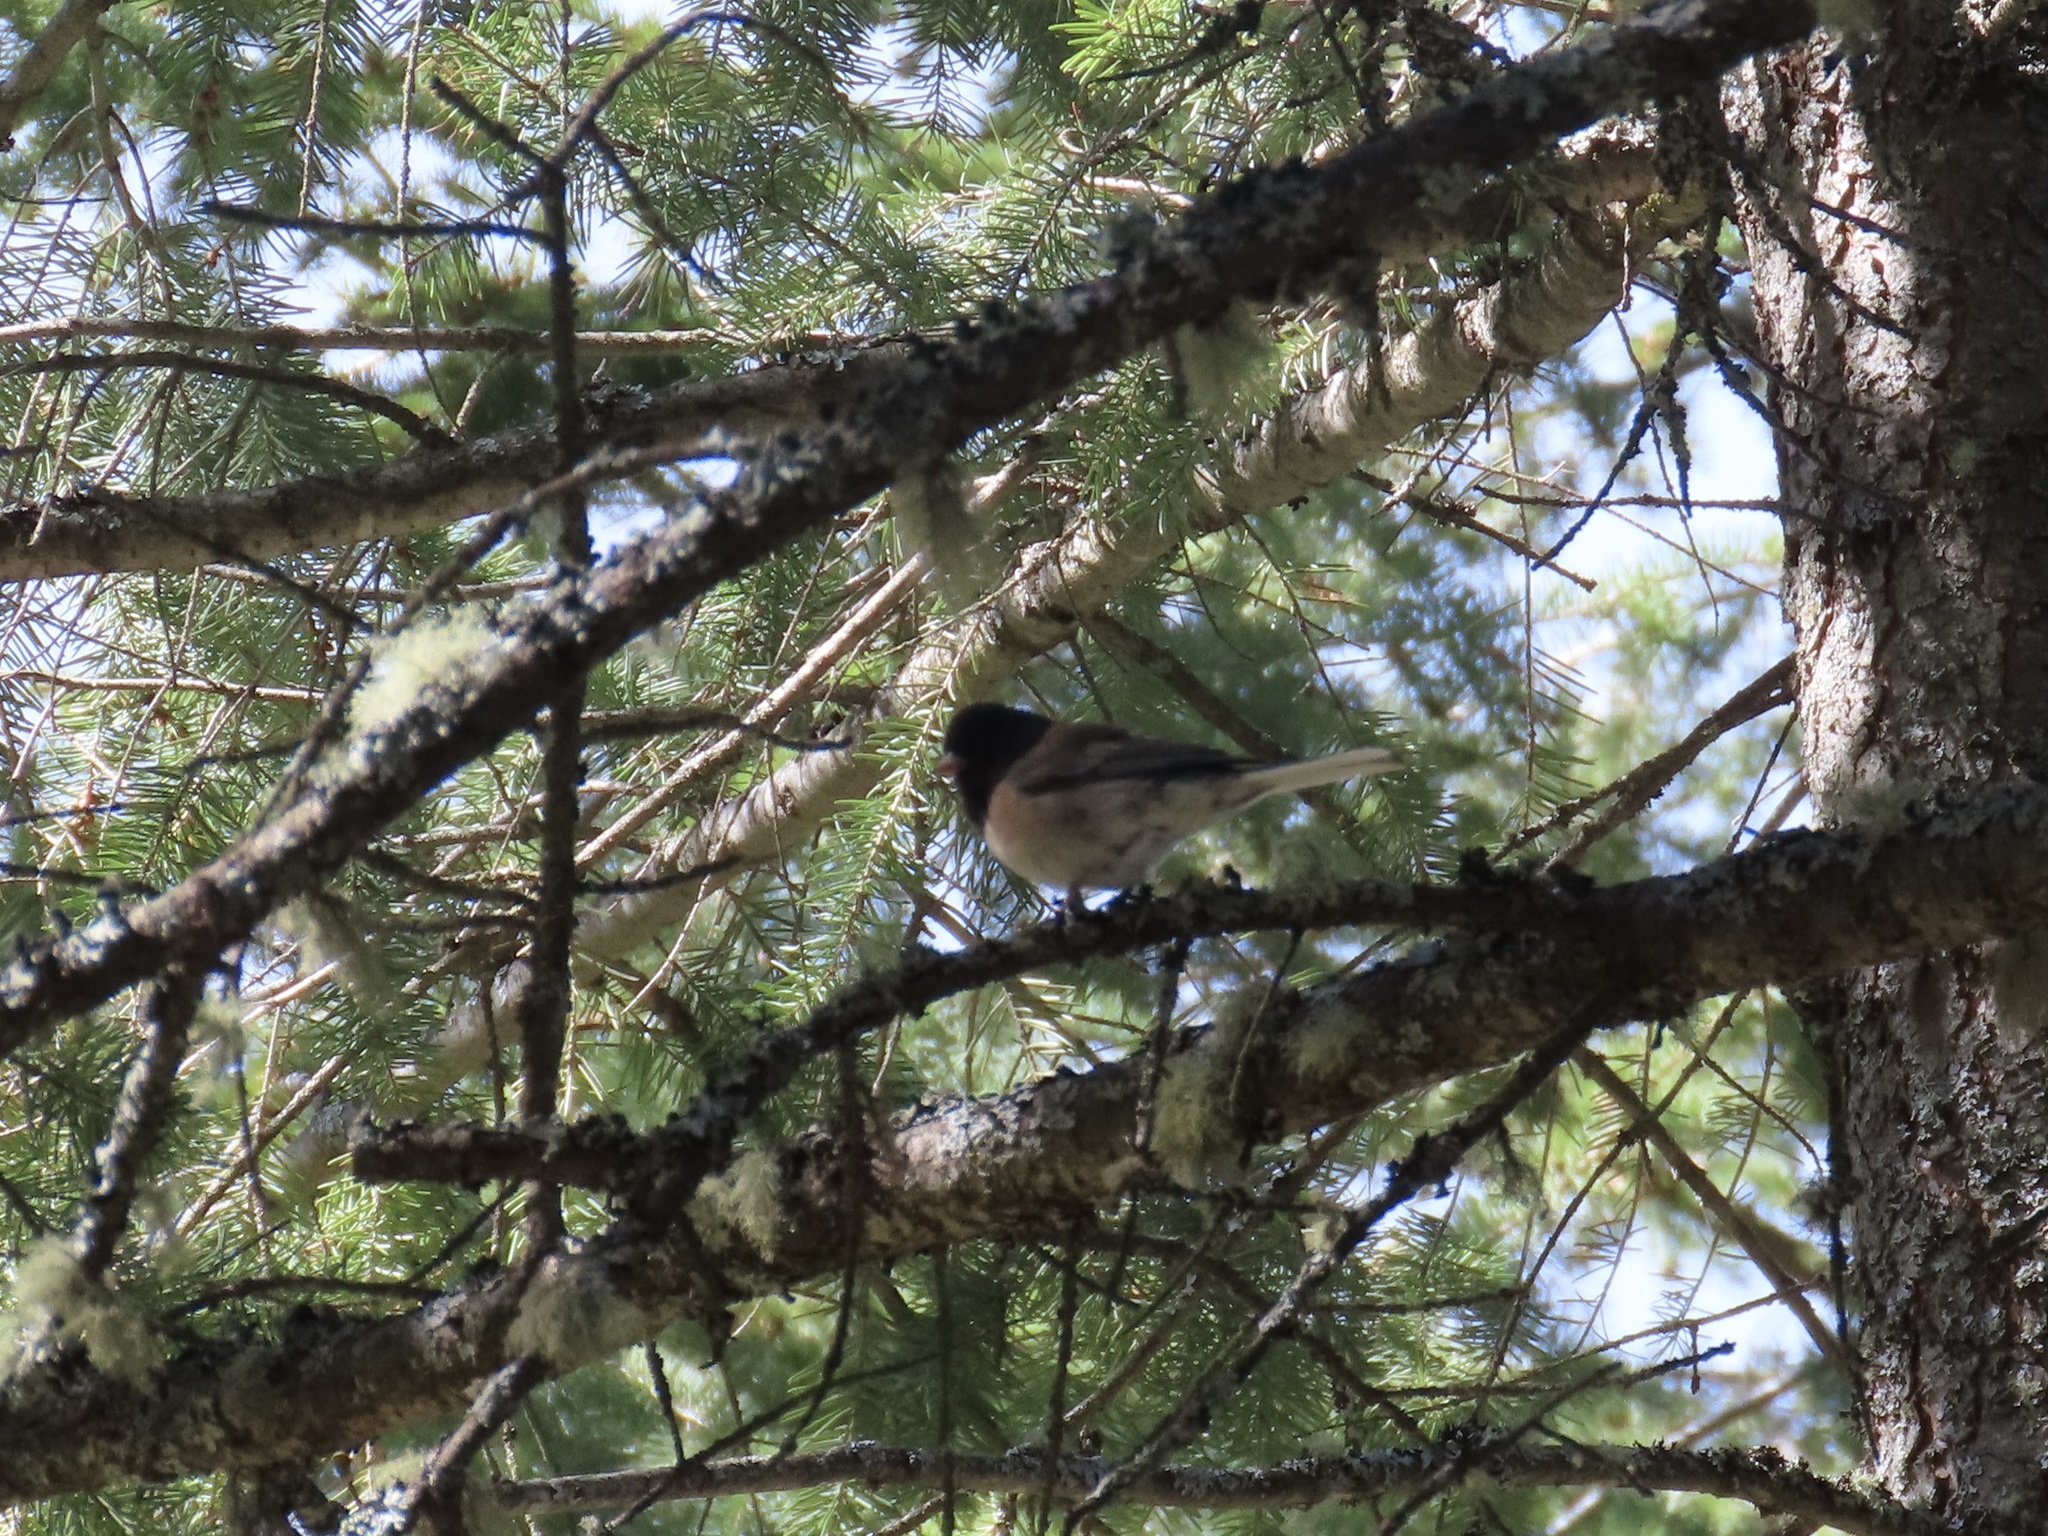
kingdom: Animalia
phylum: Chordata
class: Aves
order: Passeriformes
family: Passerellidae
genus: Junco
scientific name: Junco hyemalis
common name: Dark-eyed junco
